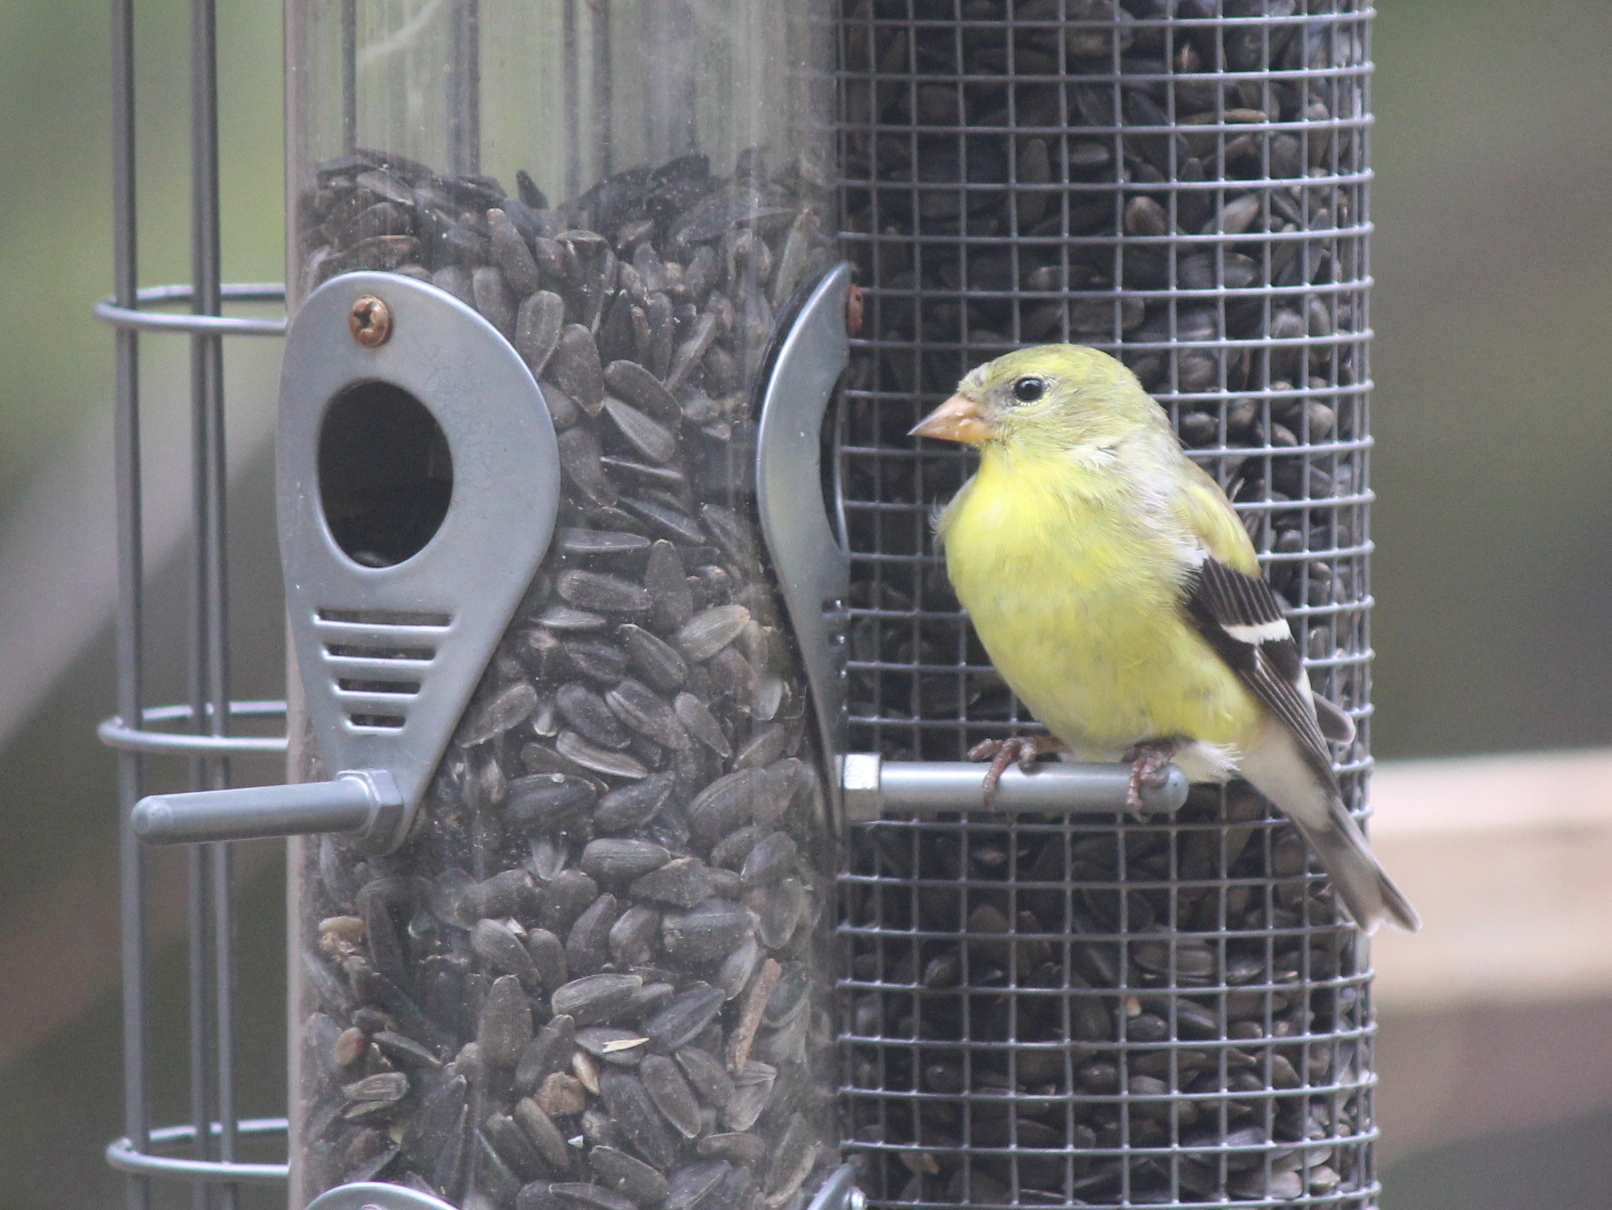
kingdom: Animalia
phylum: Chordata
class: Aves
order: Passeriformes
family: Fringillidae
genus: Spinus
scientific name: Spinus tristis
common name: American goldfinch
